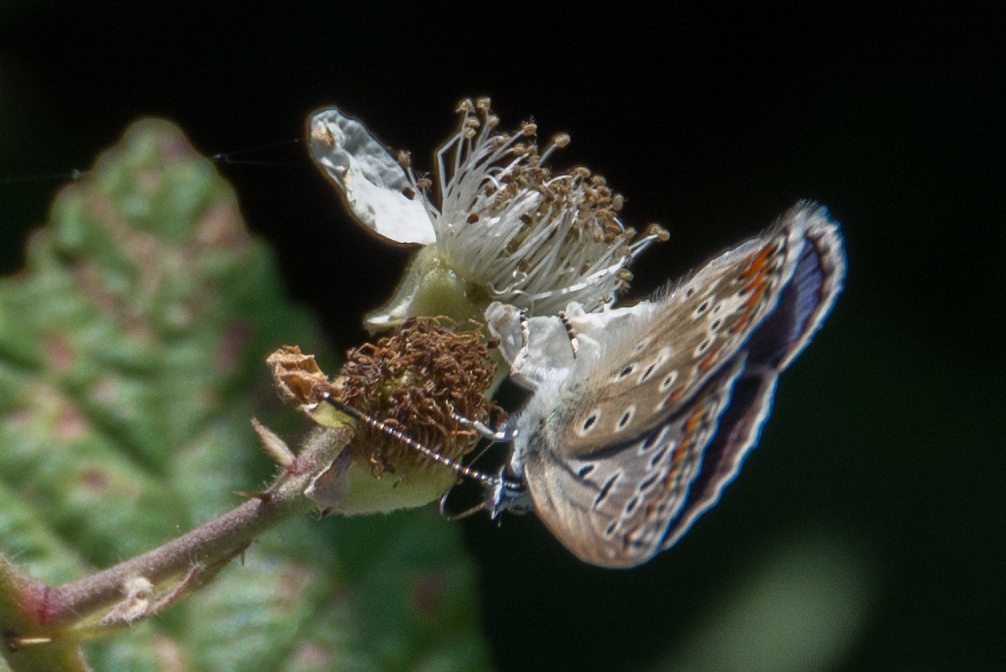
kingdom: Animalia
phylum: Arthropoda
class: Insecta
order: Lepidoptera
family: Lycaenidae
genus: Polyommatus
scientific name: Polyommatus celina
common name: Austaut's blue
